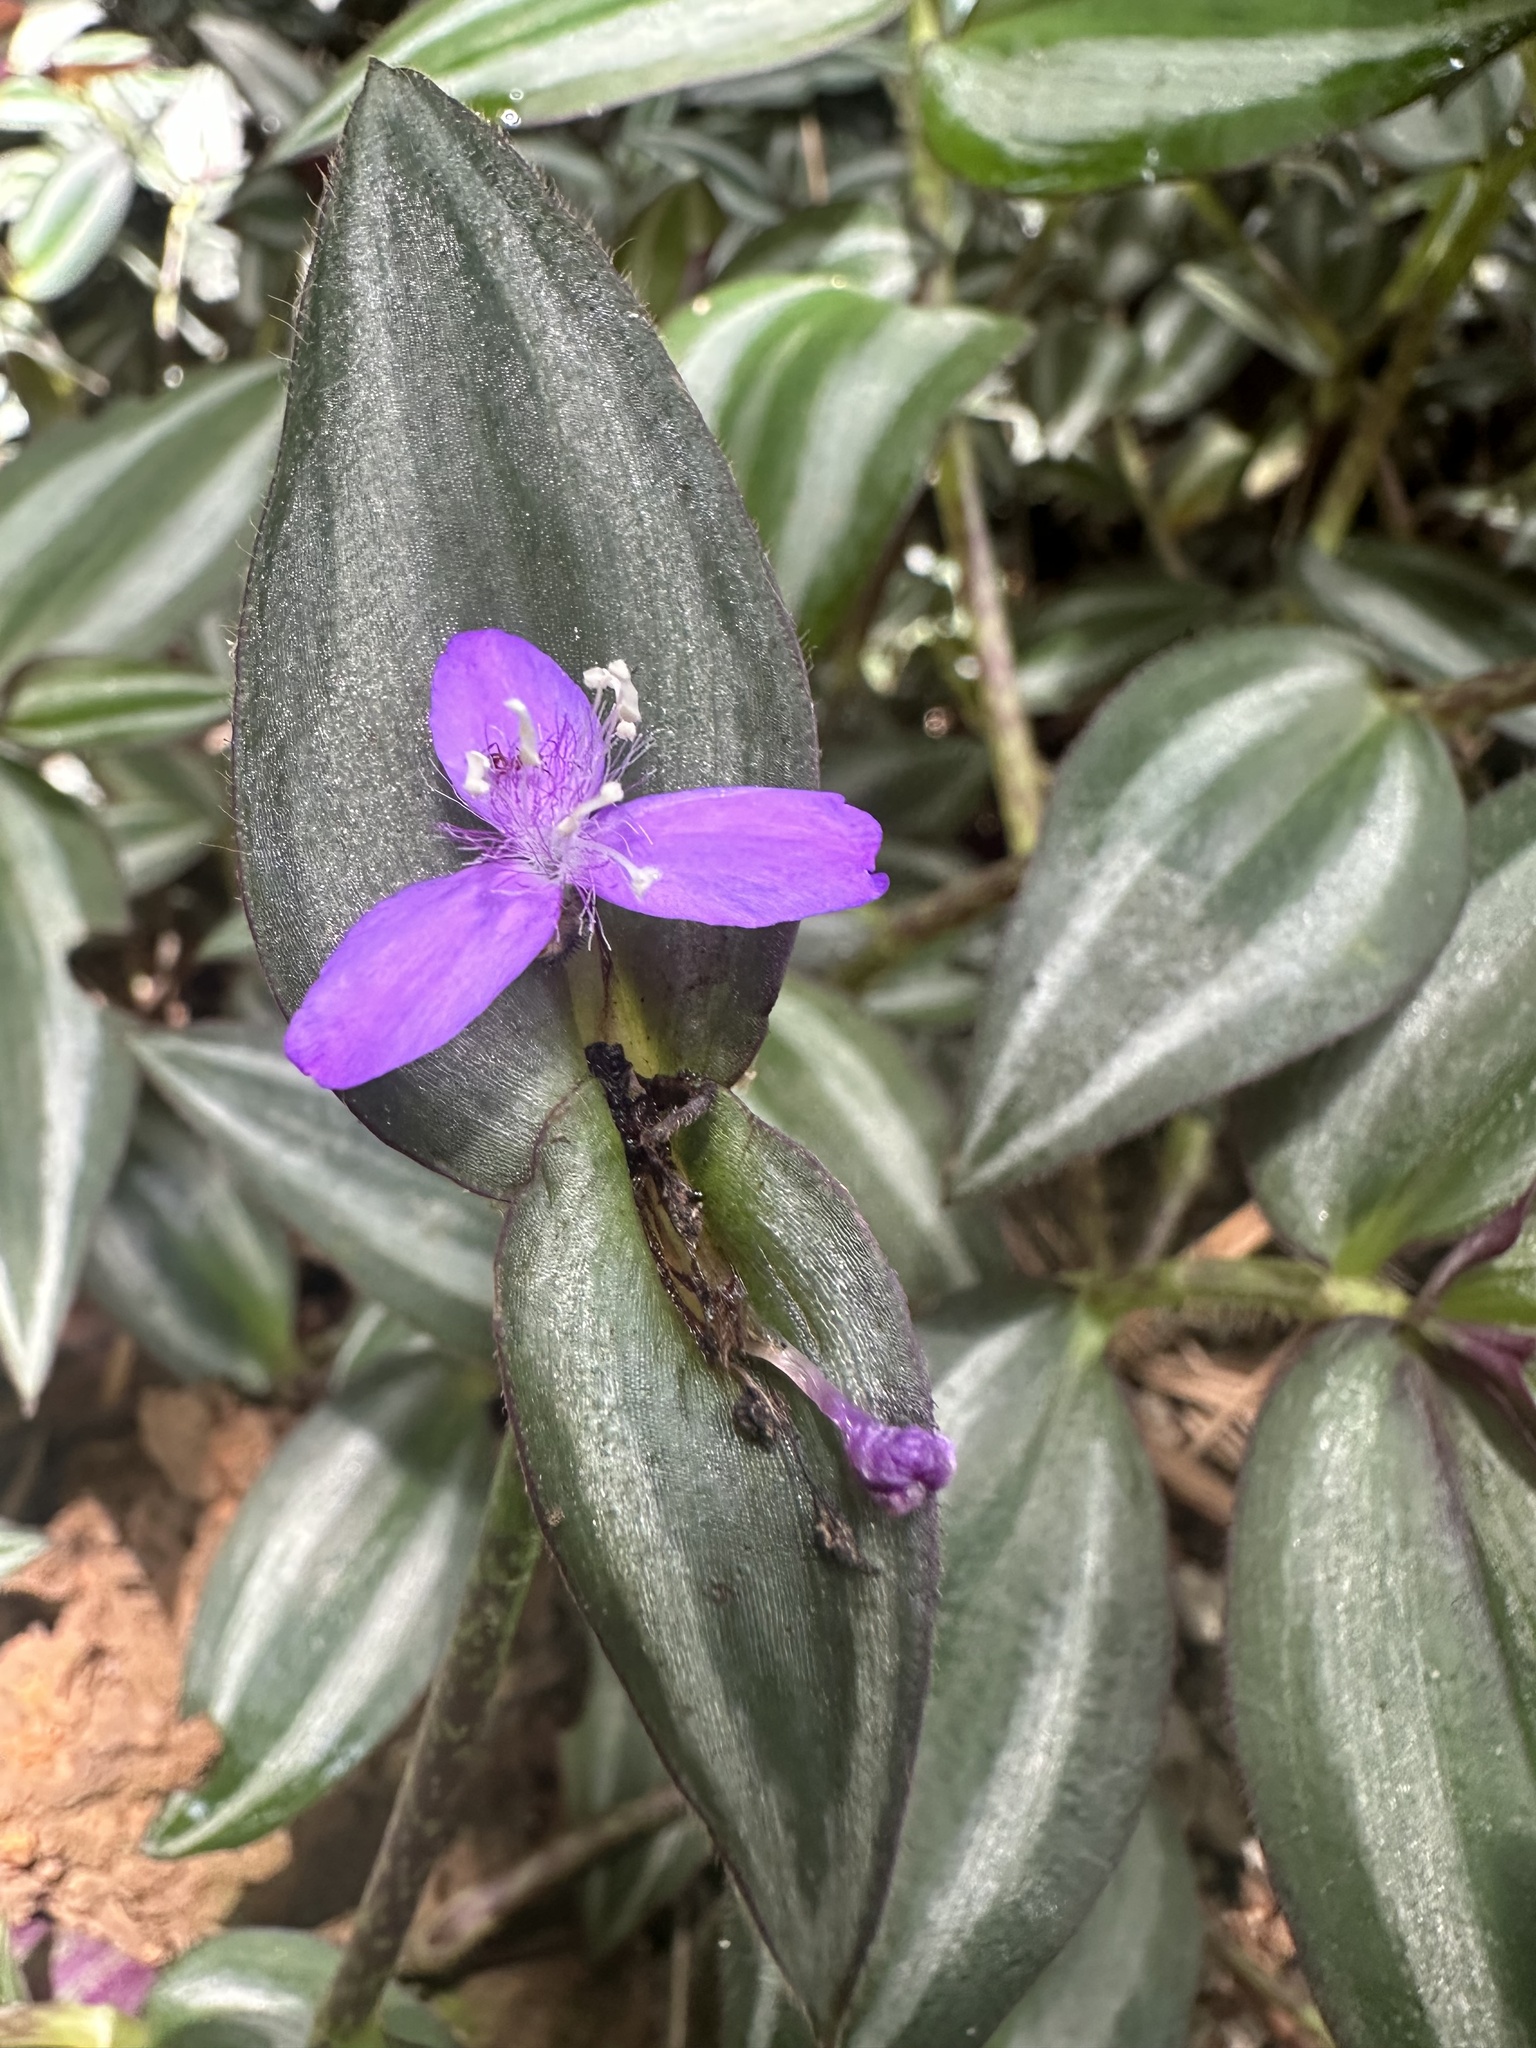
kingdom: Plantae
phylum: Tracheophyta
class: Liliopsida
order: Commelinales
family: Commelinaceae
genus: Tradescantia
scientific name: Tradescantia zebrina
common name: Inchplant
